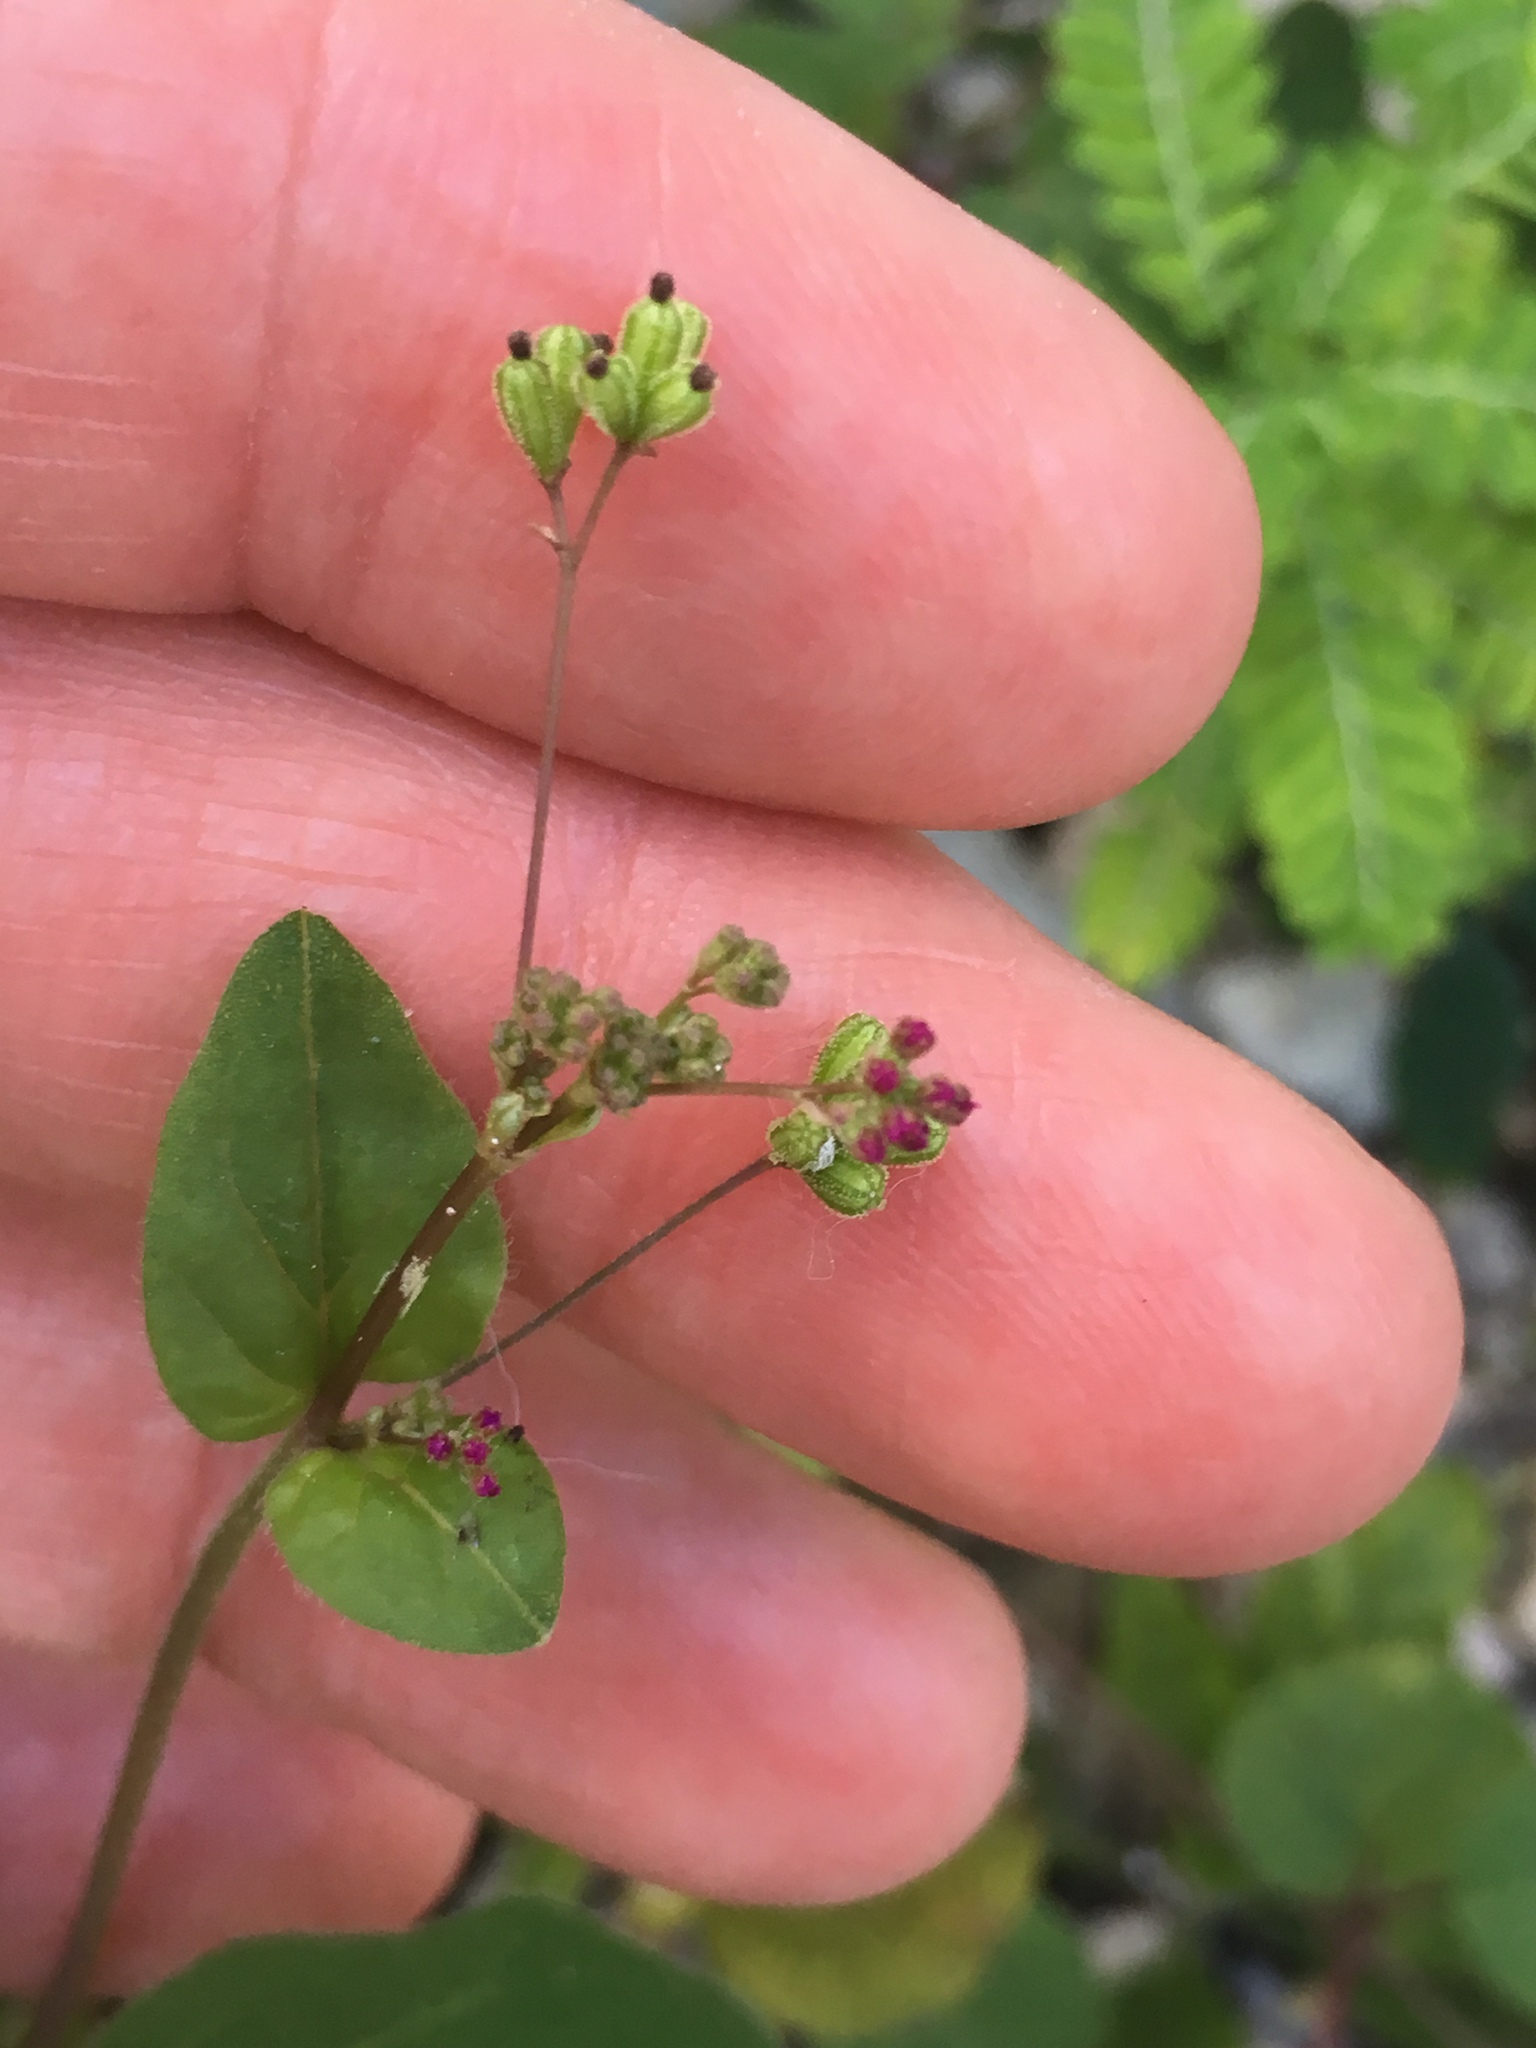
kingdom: Plantae
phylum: Tracheophyta
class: Magnoliopsida
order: Caryophyllales
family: Nyctaginaceae
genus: Boerhavia
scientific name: Boerhavia coccinea
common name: Scarlet spiderling
